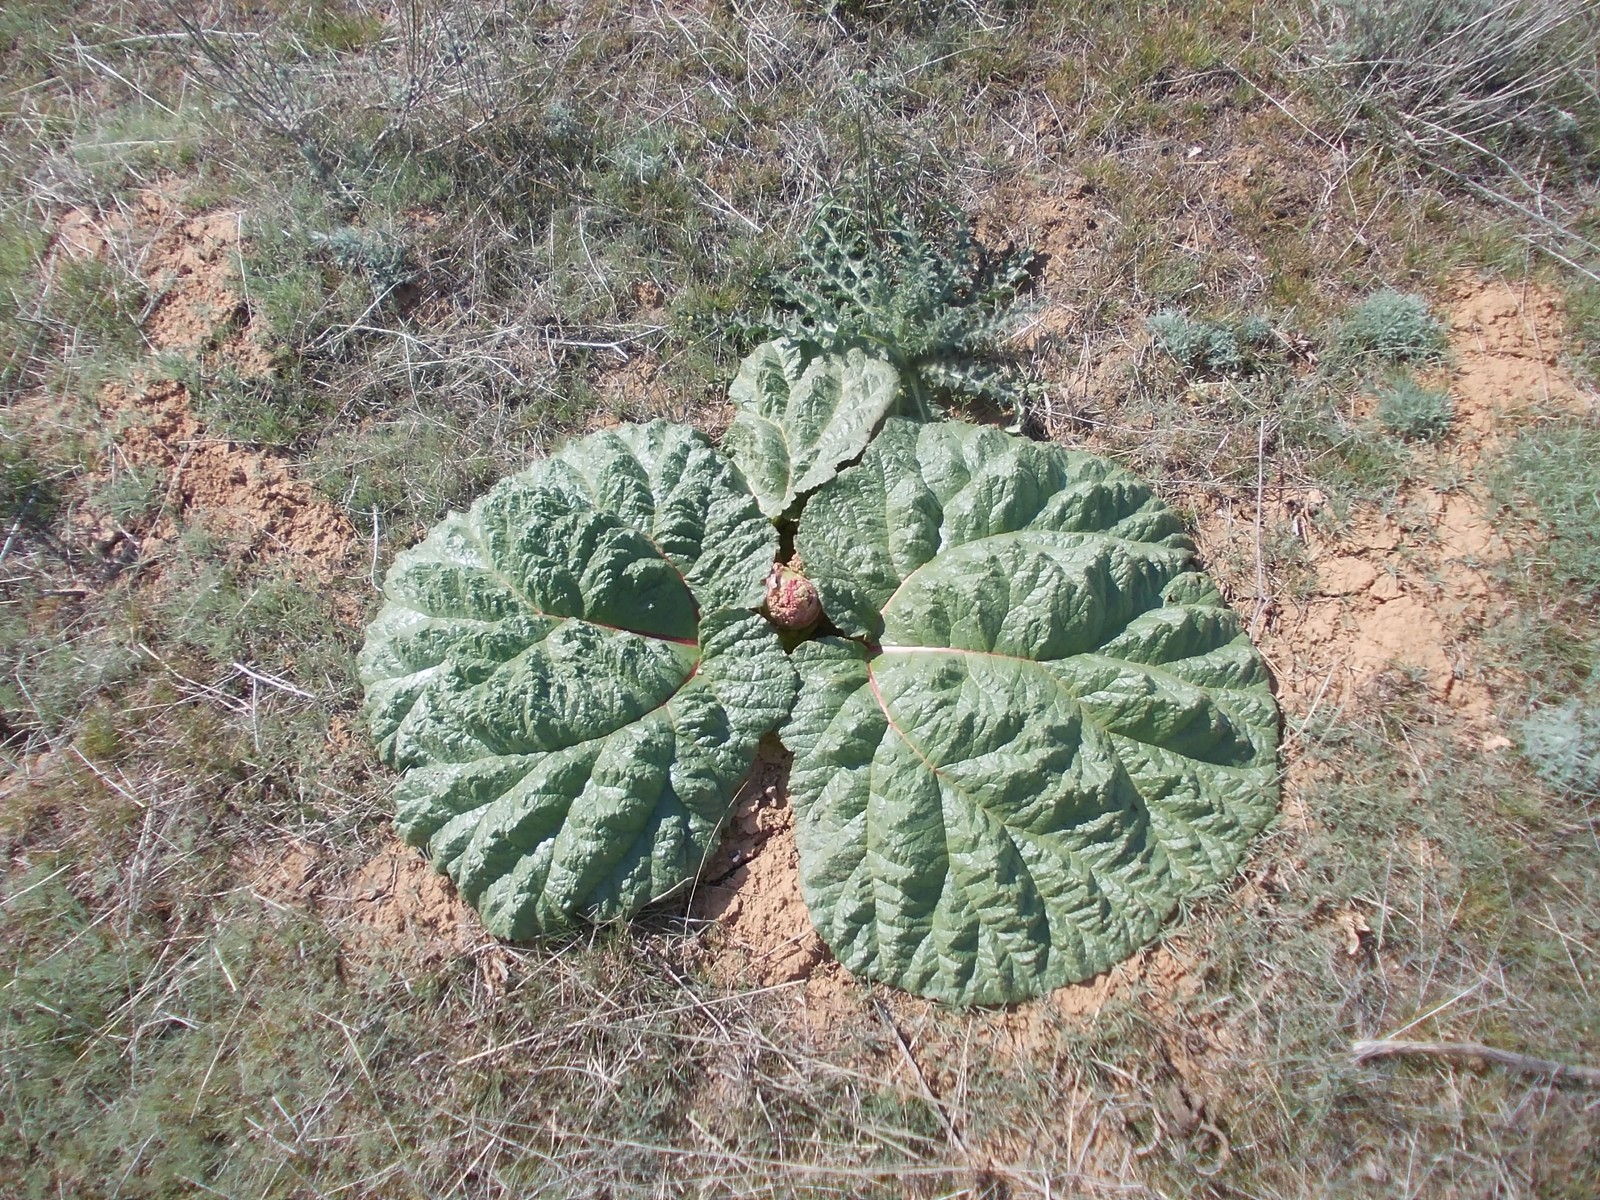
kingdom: Plantae
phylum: Tracheophyta
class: Magnoliopsida
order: Caryophyllales
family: Polygonaceae
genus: Rheum
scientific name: Rheum tataricum
